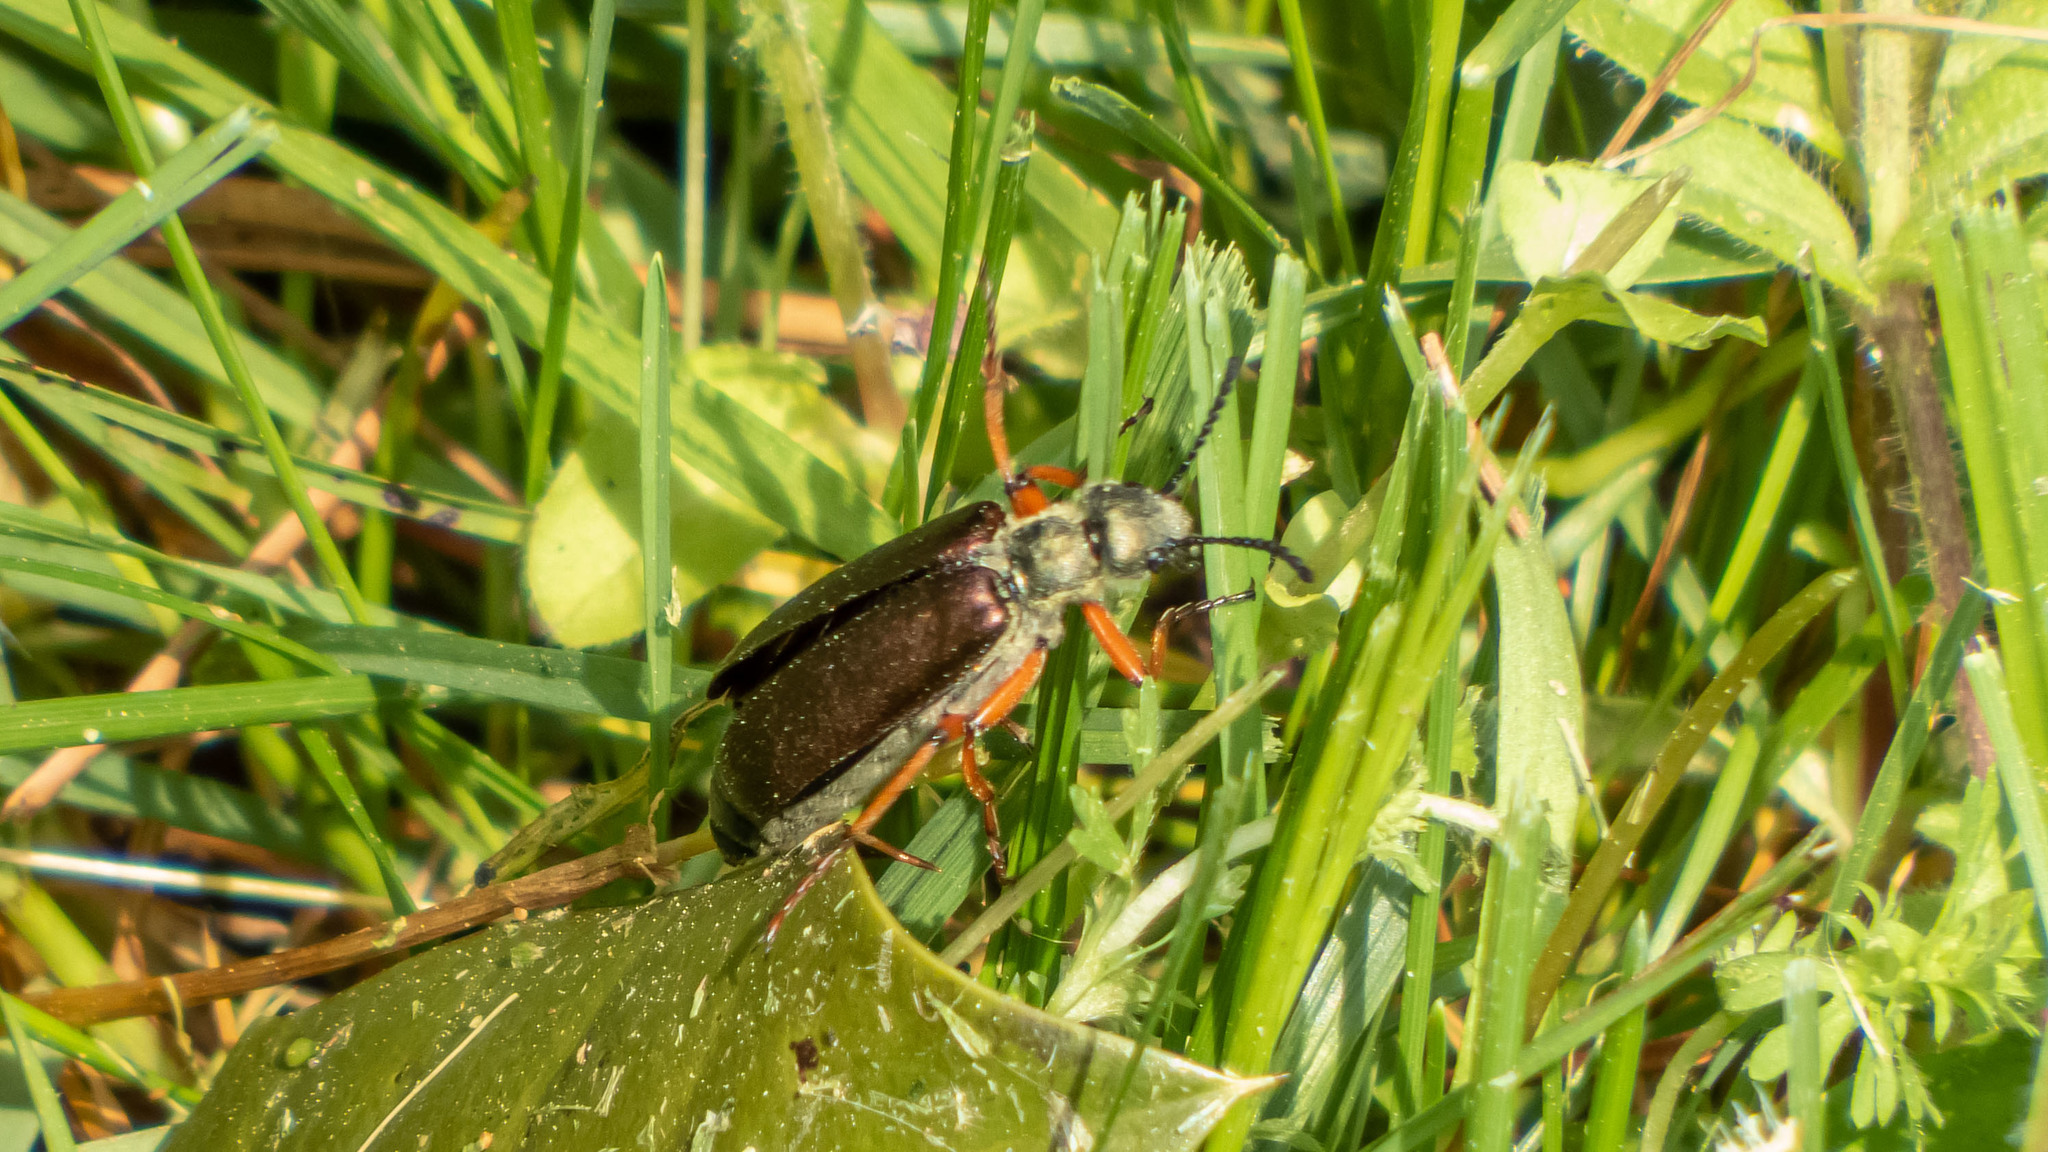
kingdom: Animalia
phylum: Arthropoda
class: Insecta
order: Coleoptera
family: Meloidae
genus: Lytta
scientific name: Lytta aenea
